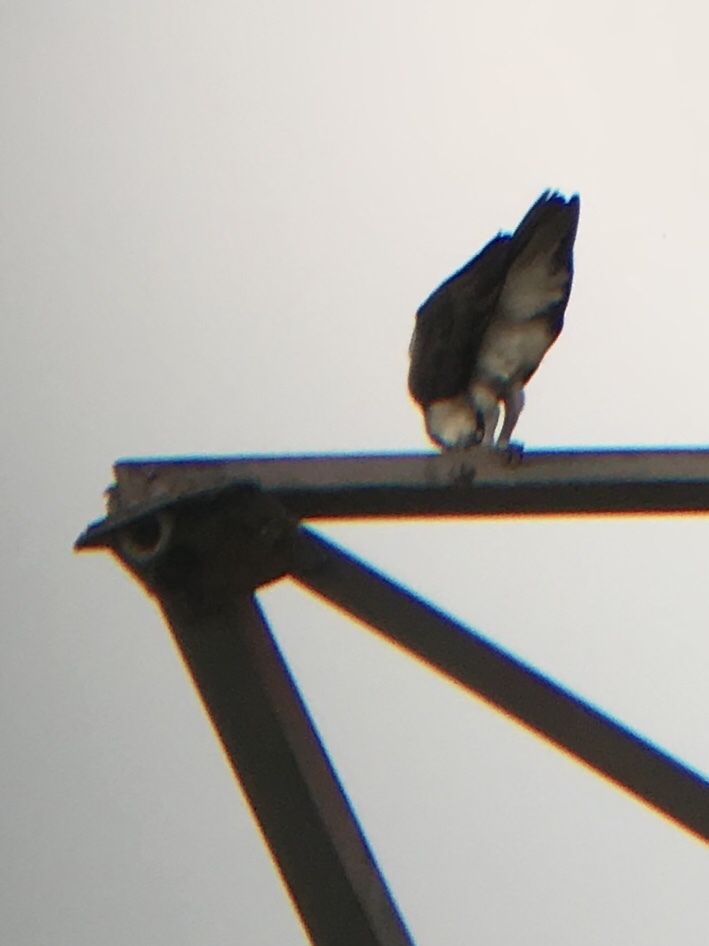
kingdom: Animalia
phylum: Chordata
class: Aves
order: Accipitriformes
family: Pandionidae
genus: Pandion
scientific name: Pandion haliaetus
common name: Osprey
